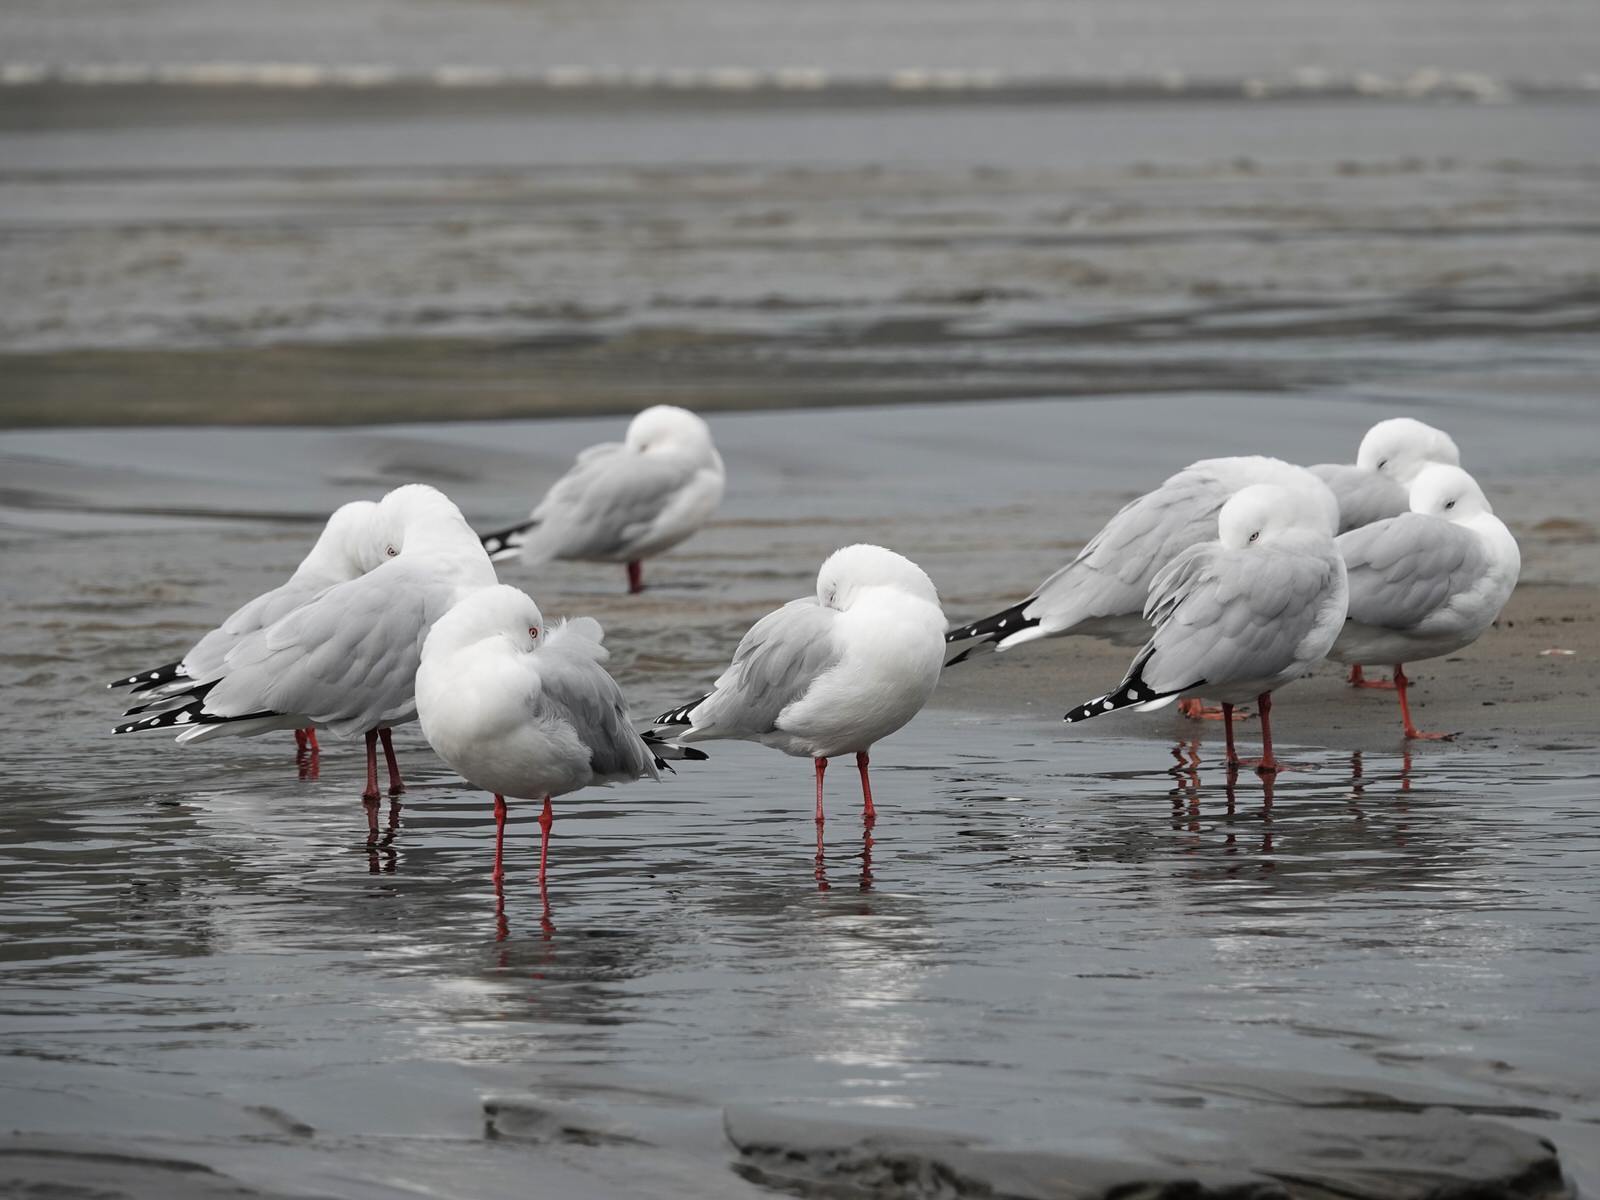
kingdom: Animalia
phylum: Chordata
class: Aves
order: Charadriiformes
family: Laridae
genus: Chroicocephalus
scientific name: Chroicocephalus novaehollandiae
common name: Silver gull
